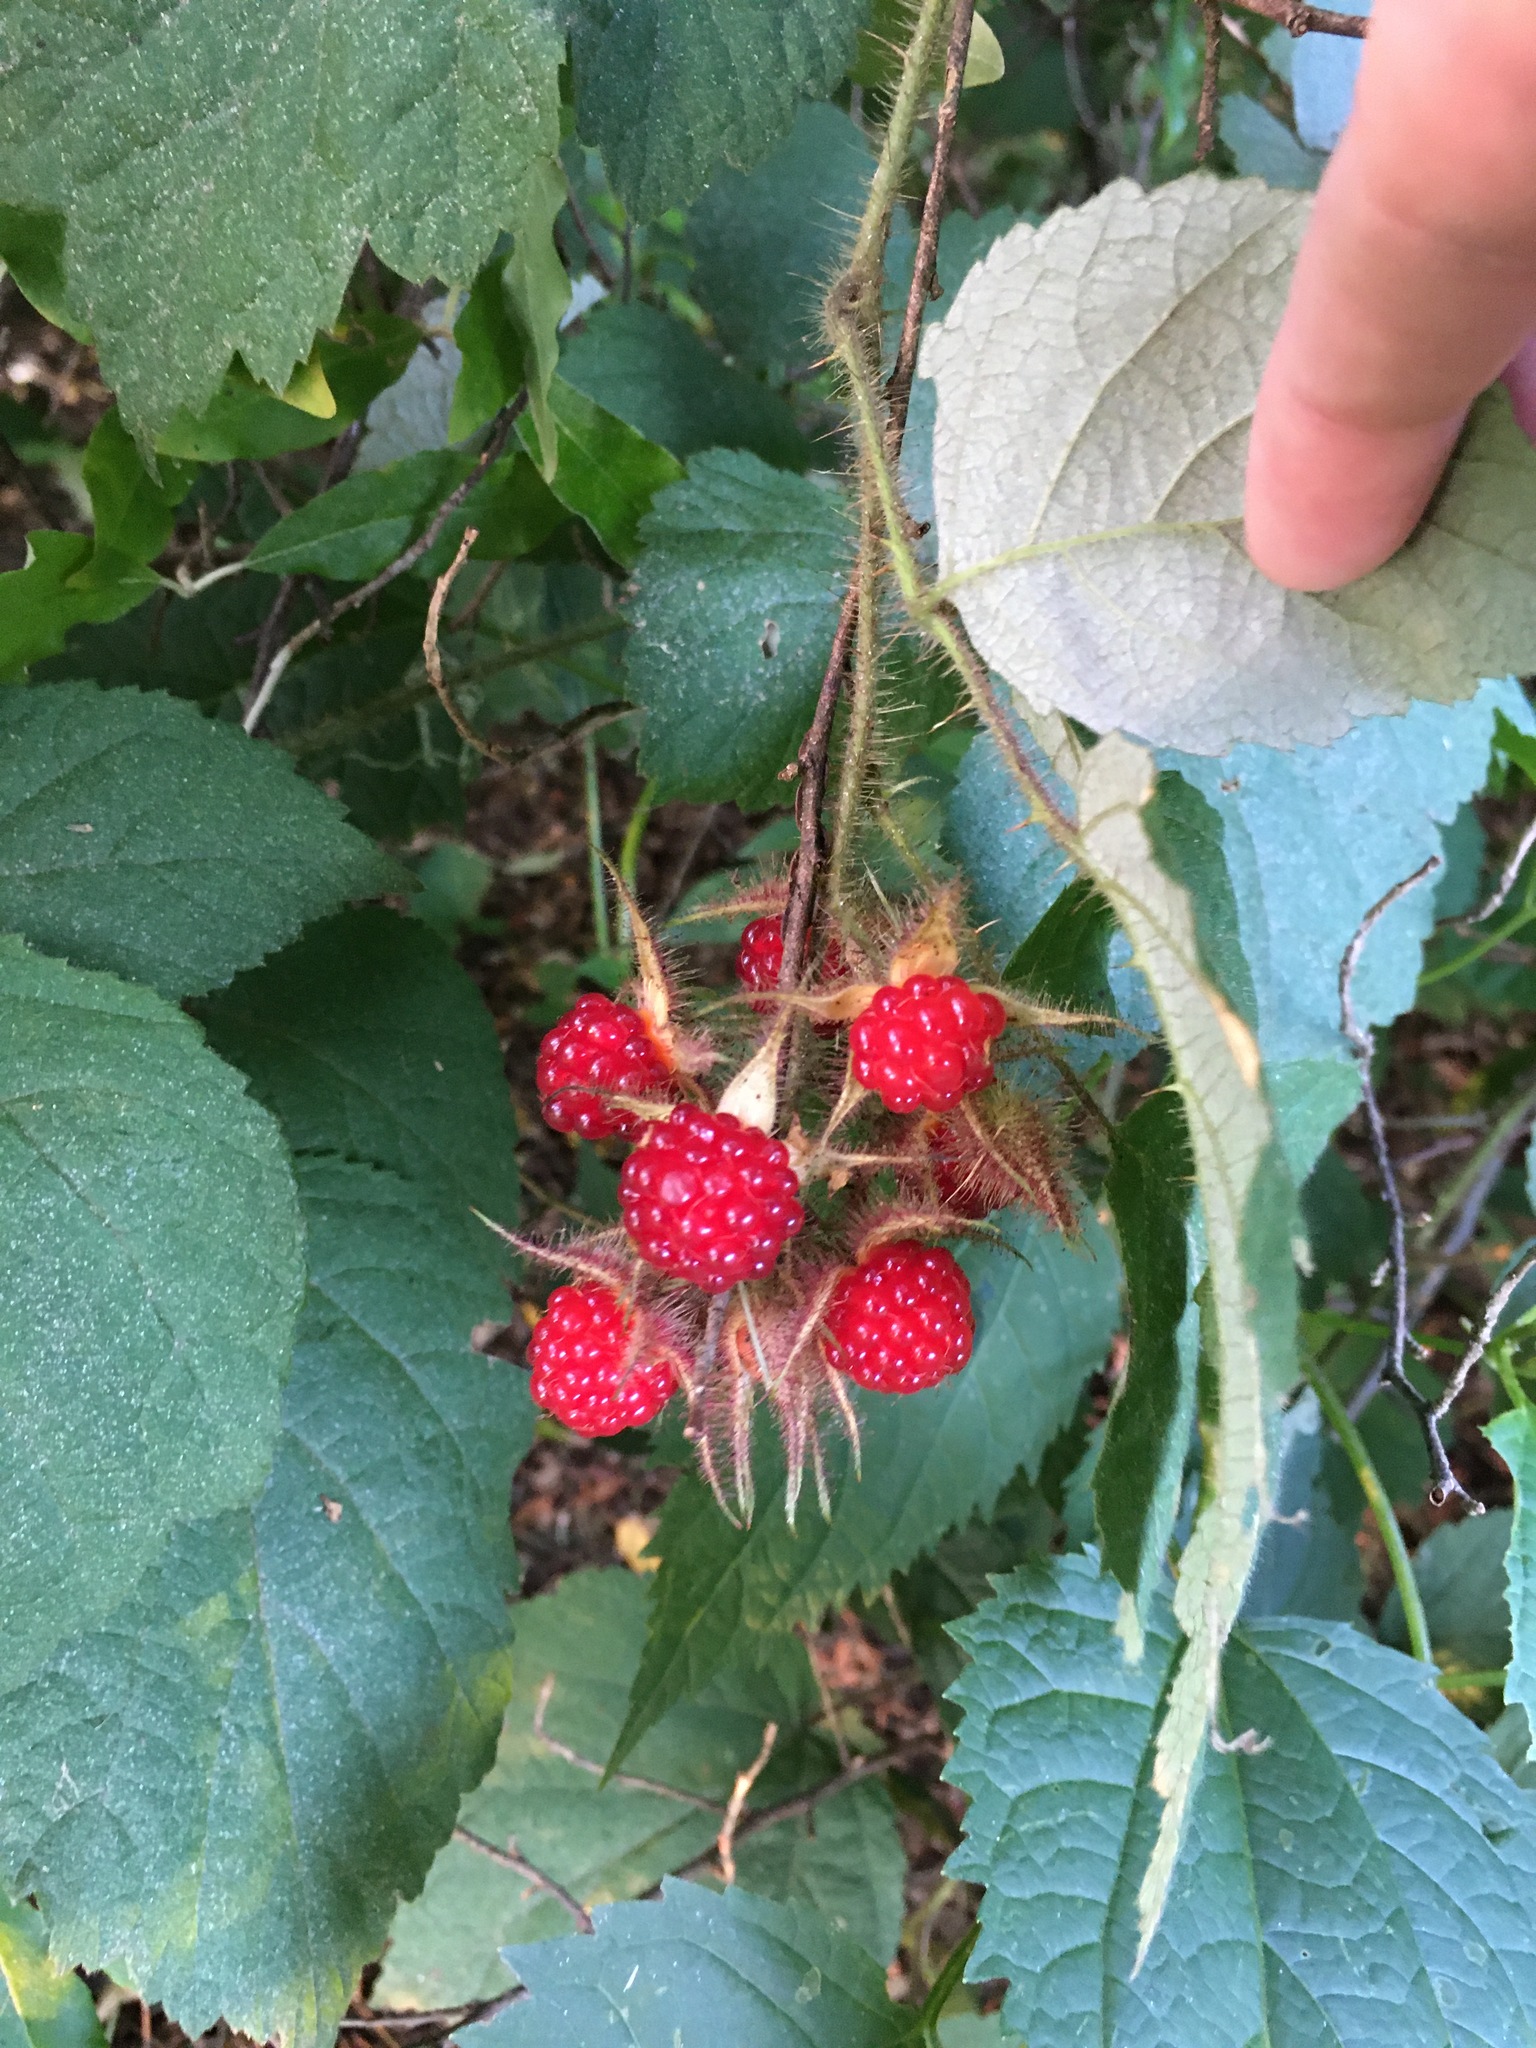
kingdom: Plantae
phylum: Tracheophyta
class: Magnoliopsida
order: Rosales
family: Rosaceae
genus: Rubus
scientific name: Rubus phoenicolasius
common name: Japanese wineberry
